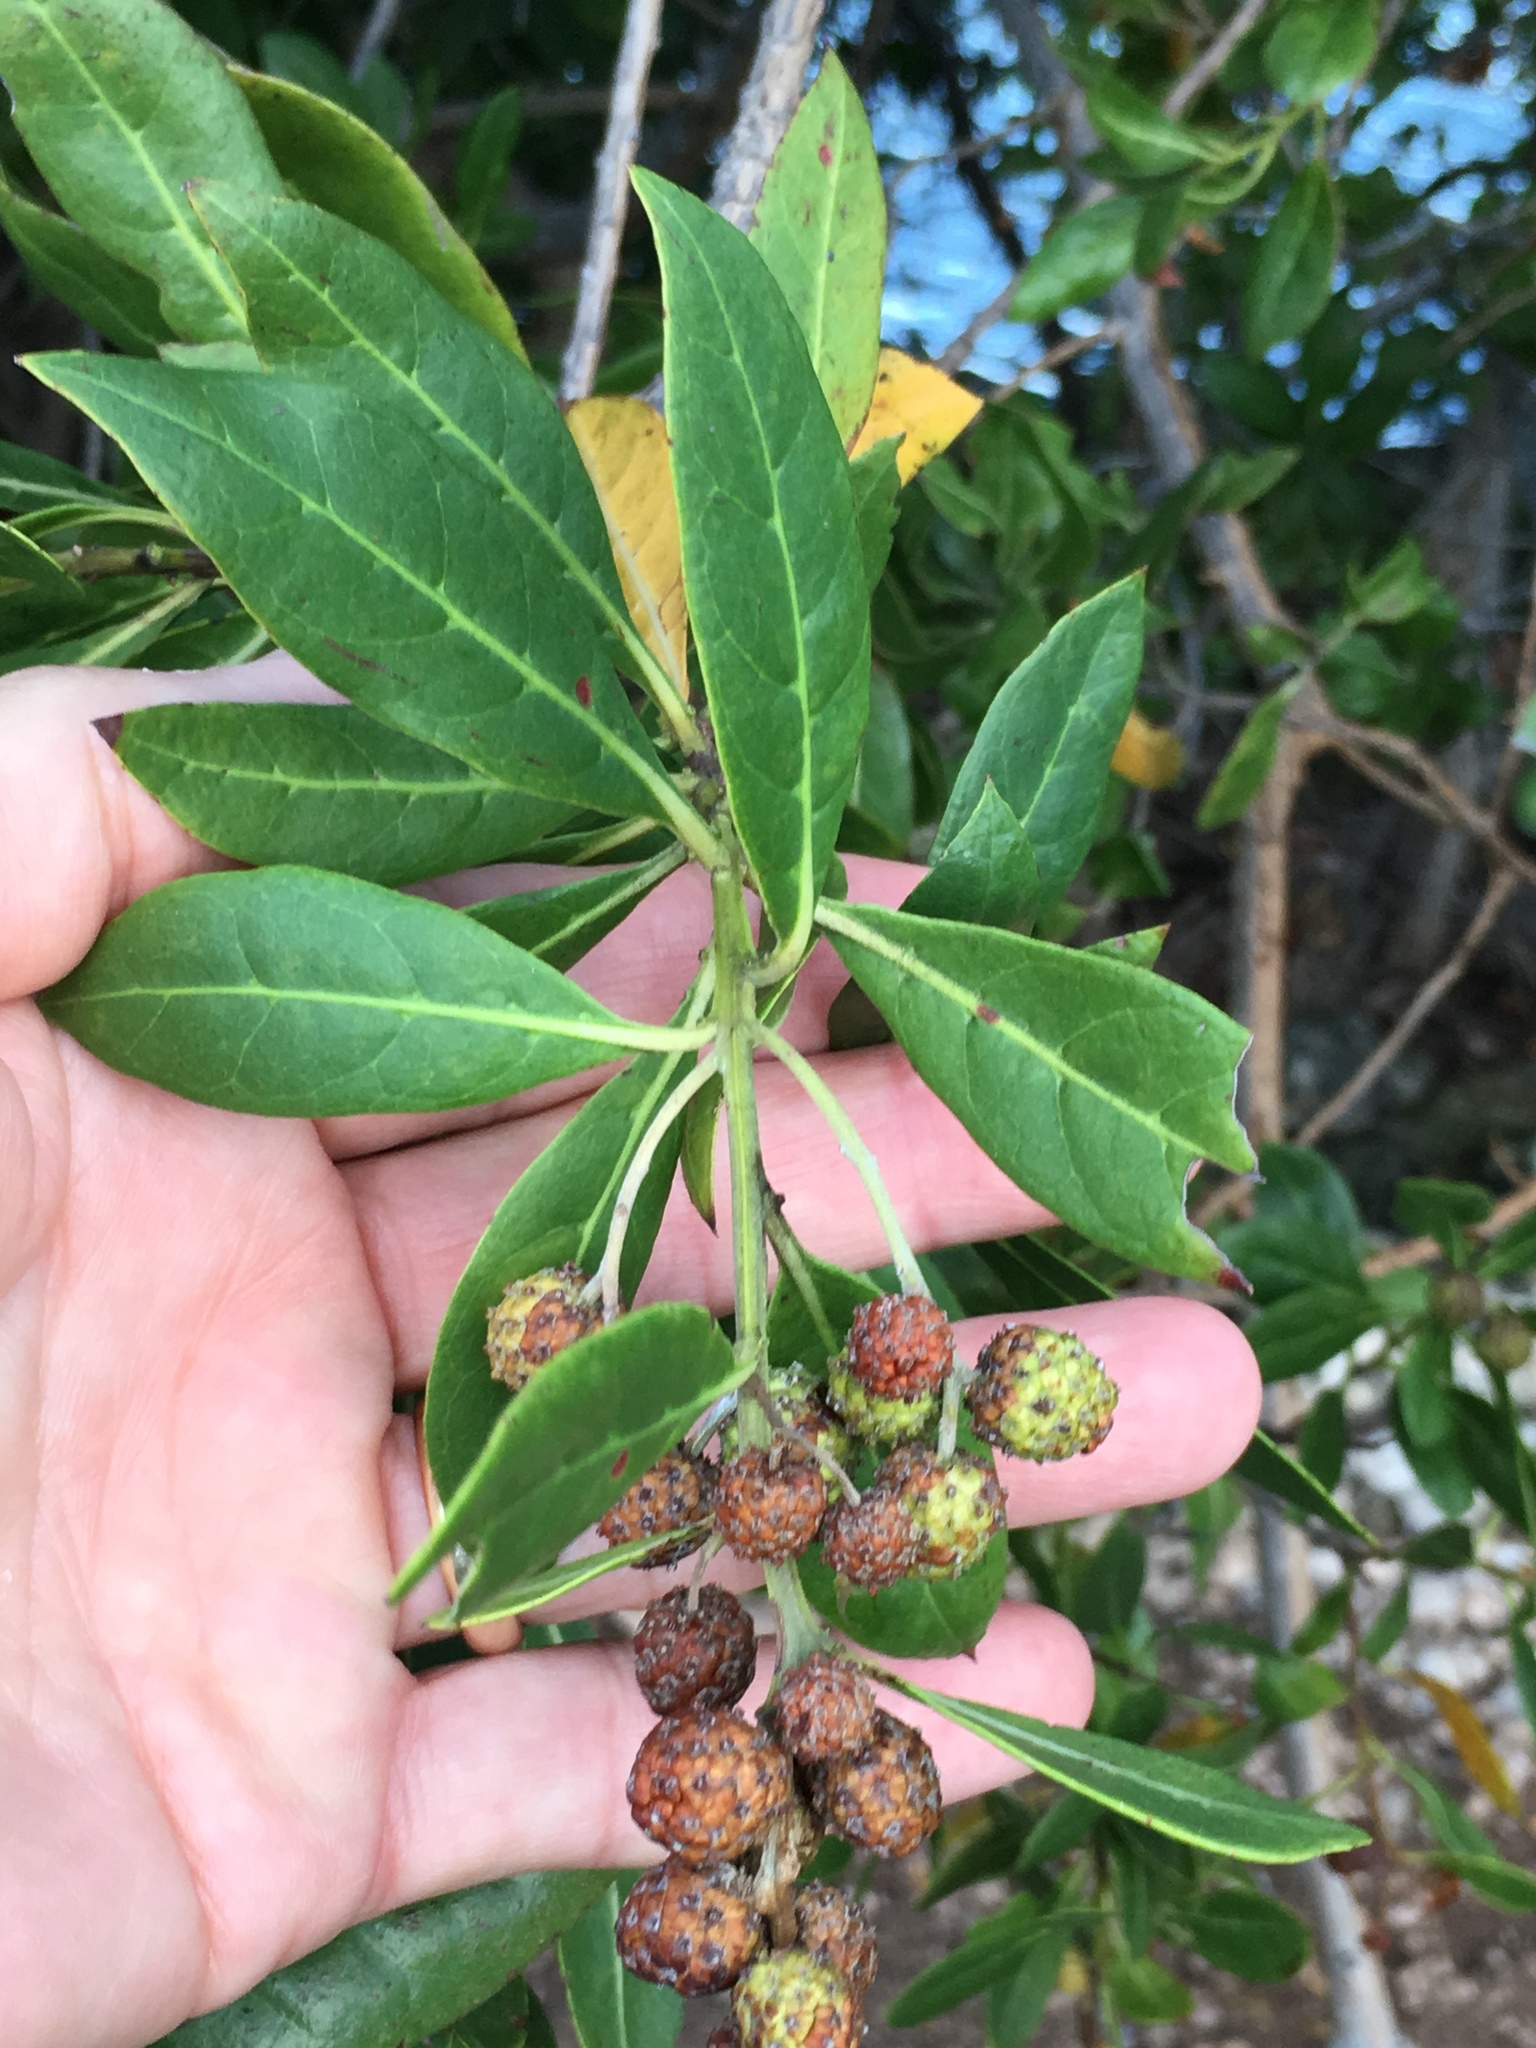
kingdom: Plantae
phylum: Tracheophyta
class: Magnoliopsida
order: Myrtales
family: Combretaceae
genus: Conocarpus
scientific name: Conocarpus erectus
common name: Button mangrove
